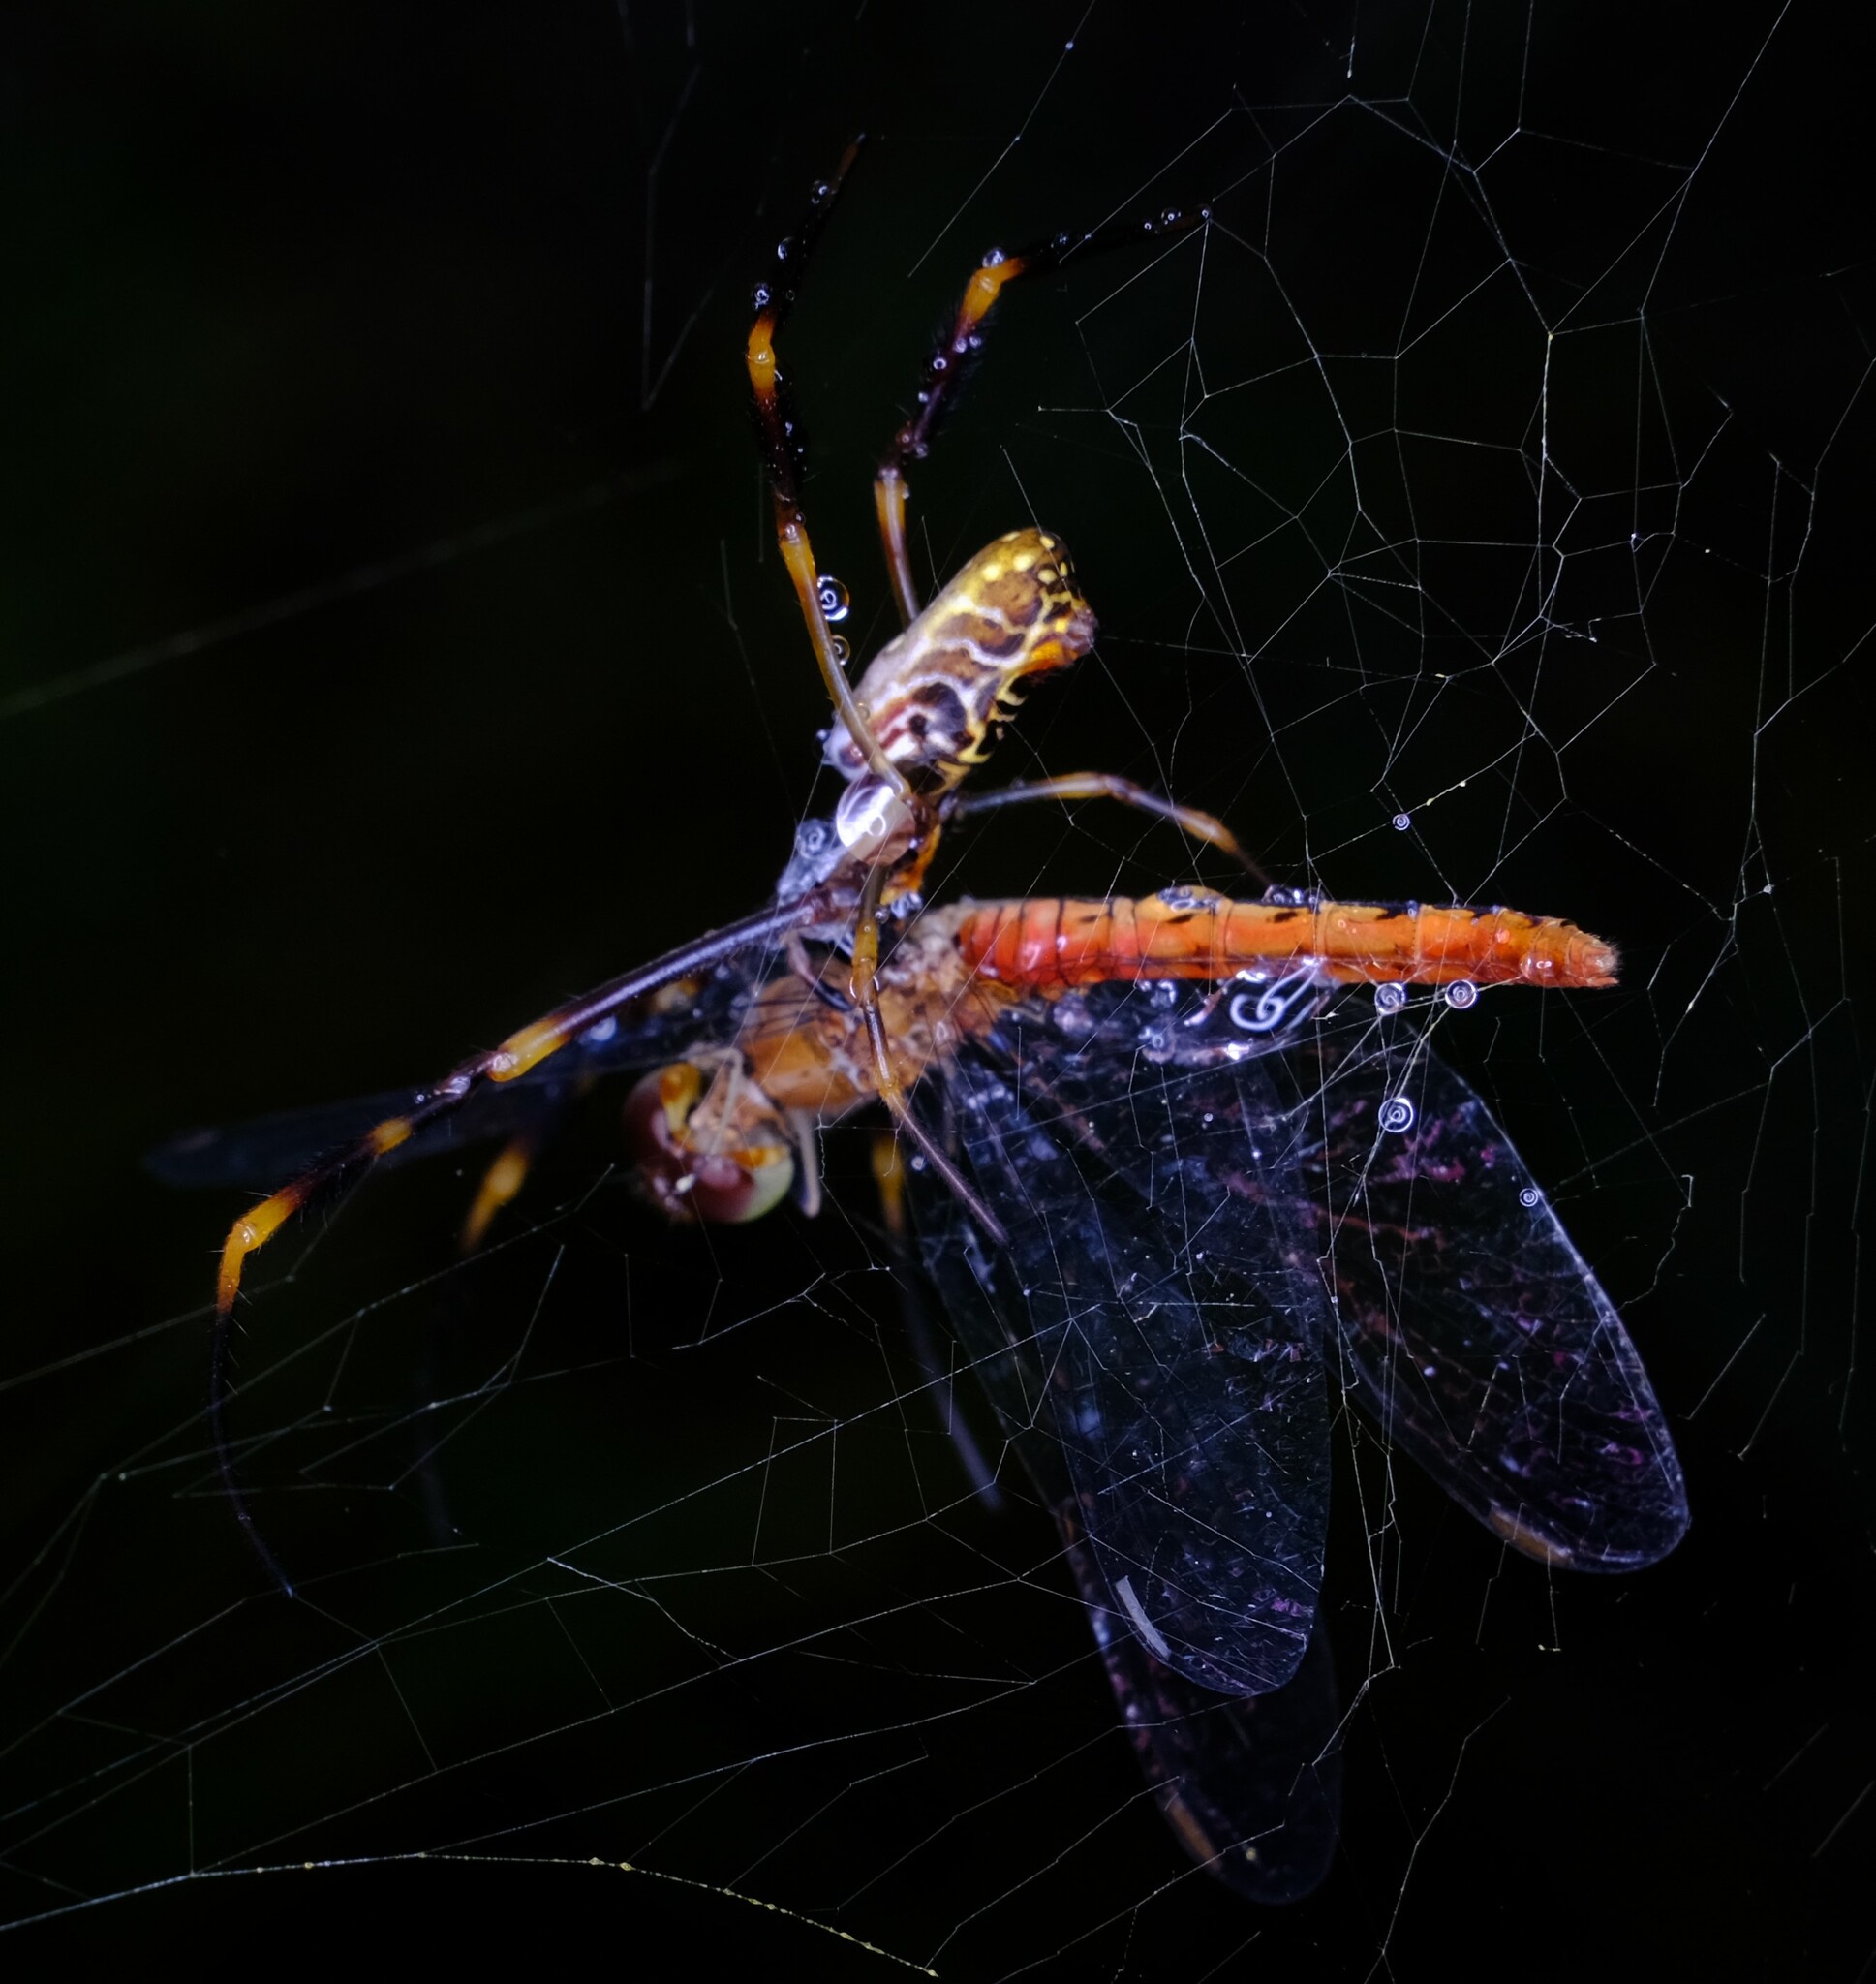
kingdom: Animalia
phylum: Arthropoda
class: Insecta
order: Odonata
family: Libellulidae
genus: Nannodiplax
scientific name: Nannodiplax rubra
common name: Pygmy percher
